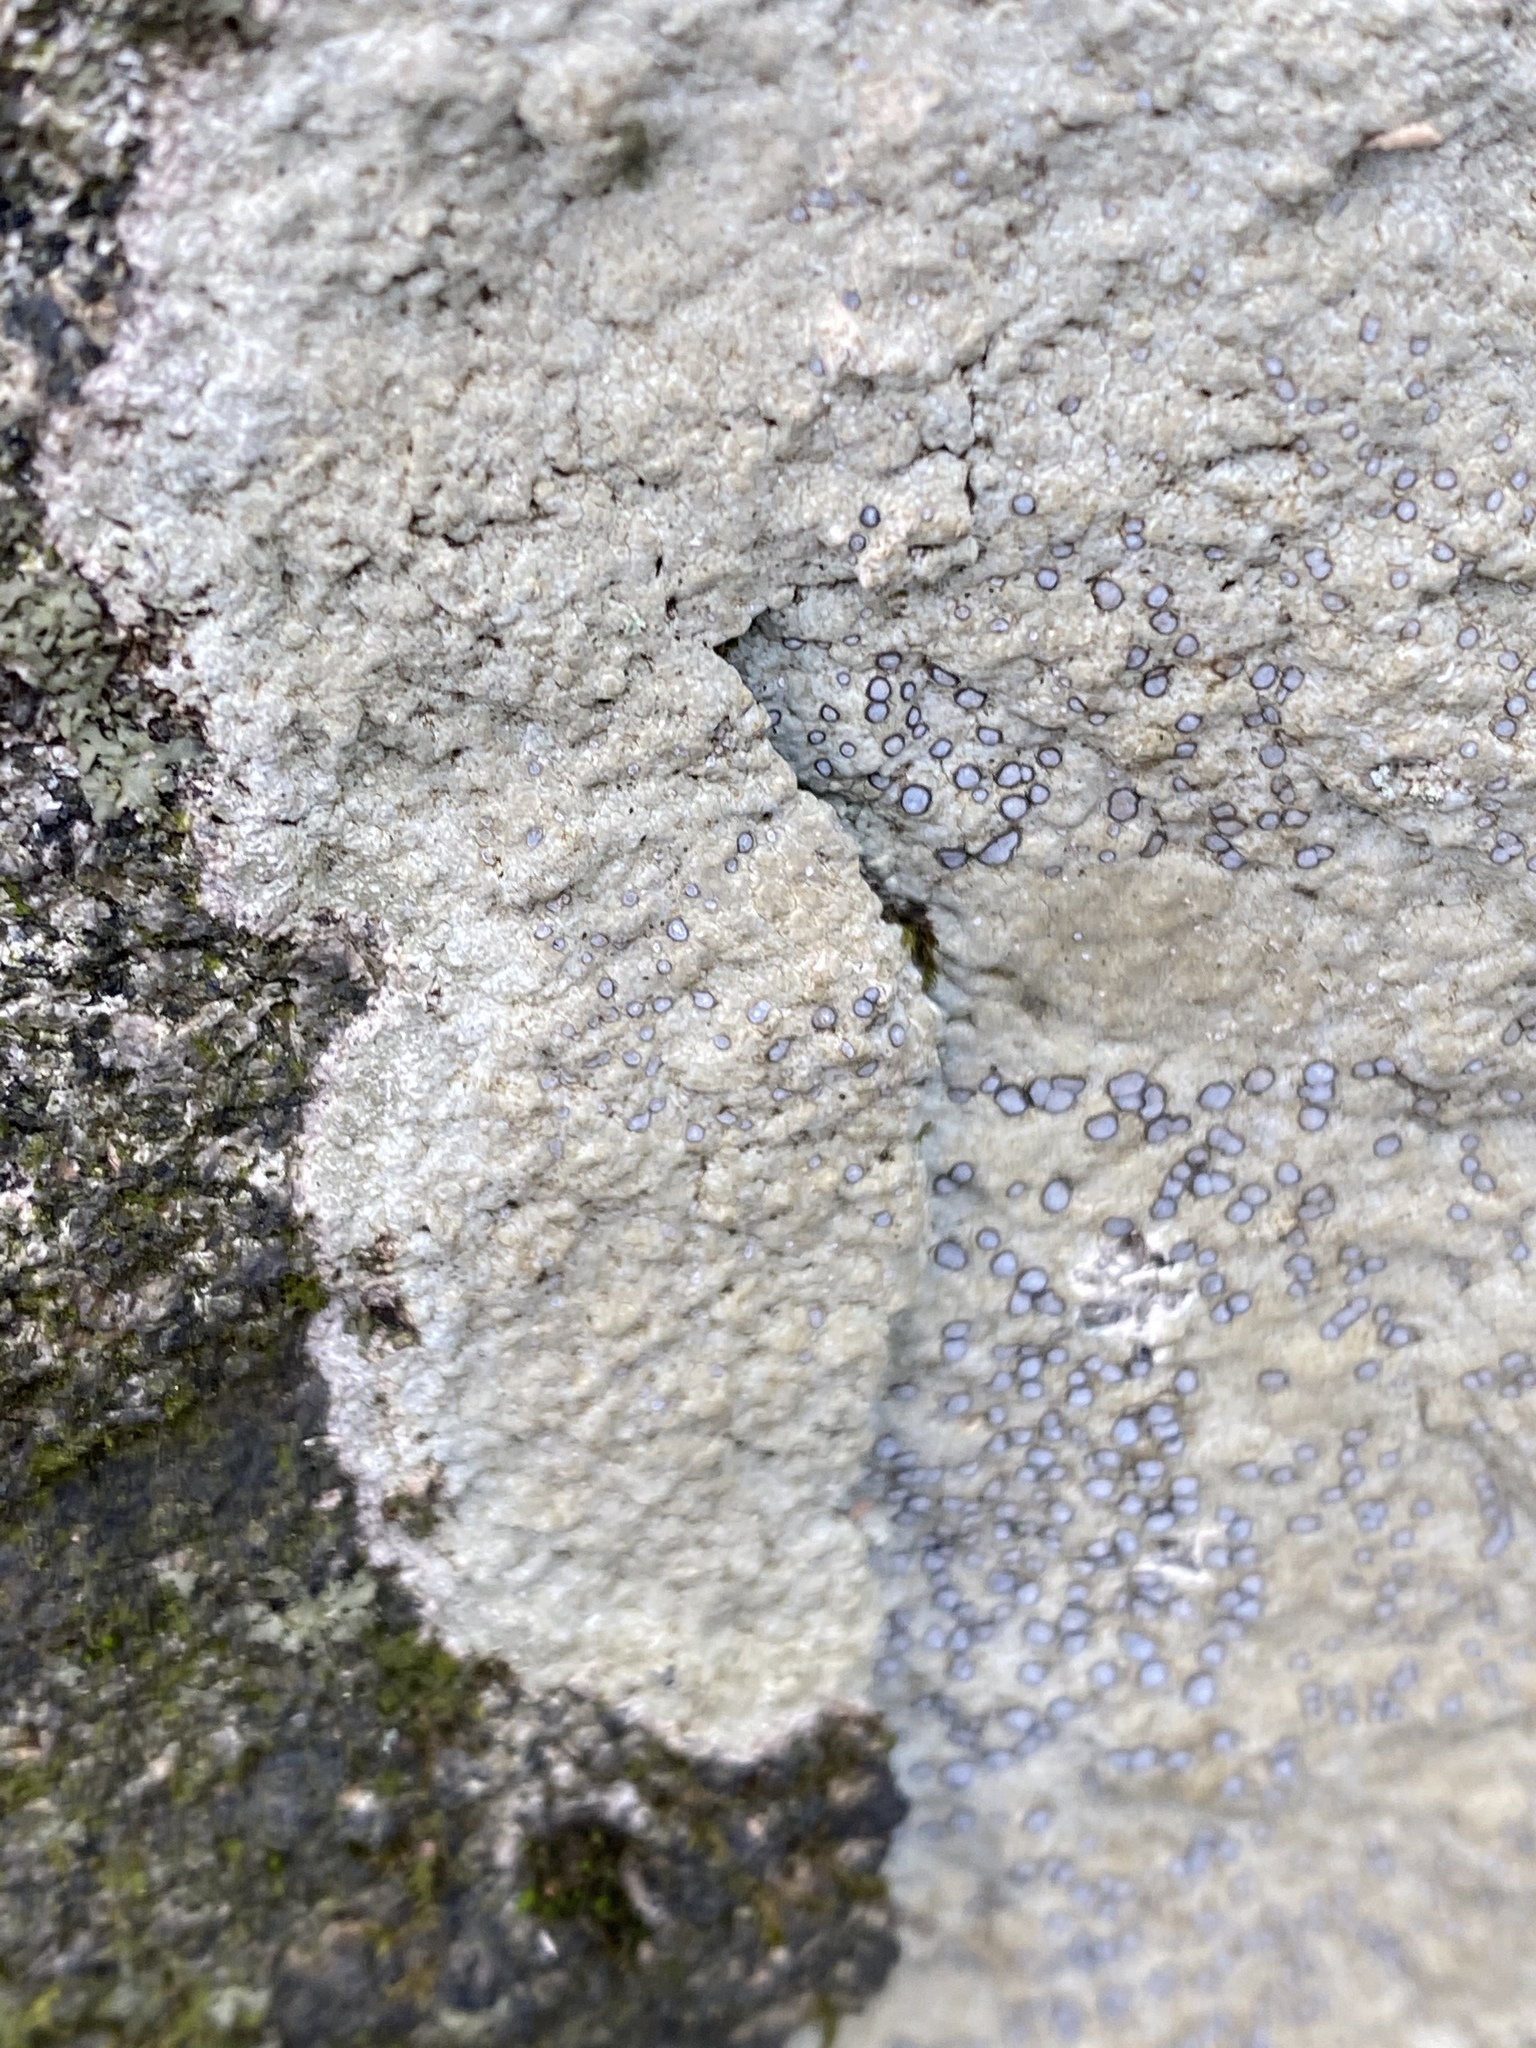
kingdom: Fungi
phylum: Ascomycota
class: Lecanoromycetes
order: Lecideales
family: Lecideaceae
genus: Porpidia
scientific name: Porpidia albocaerulescens
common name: Smokey-eyed boulder lichen
